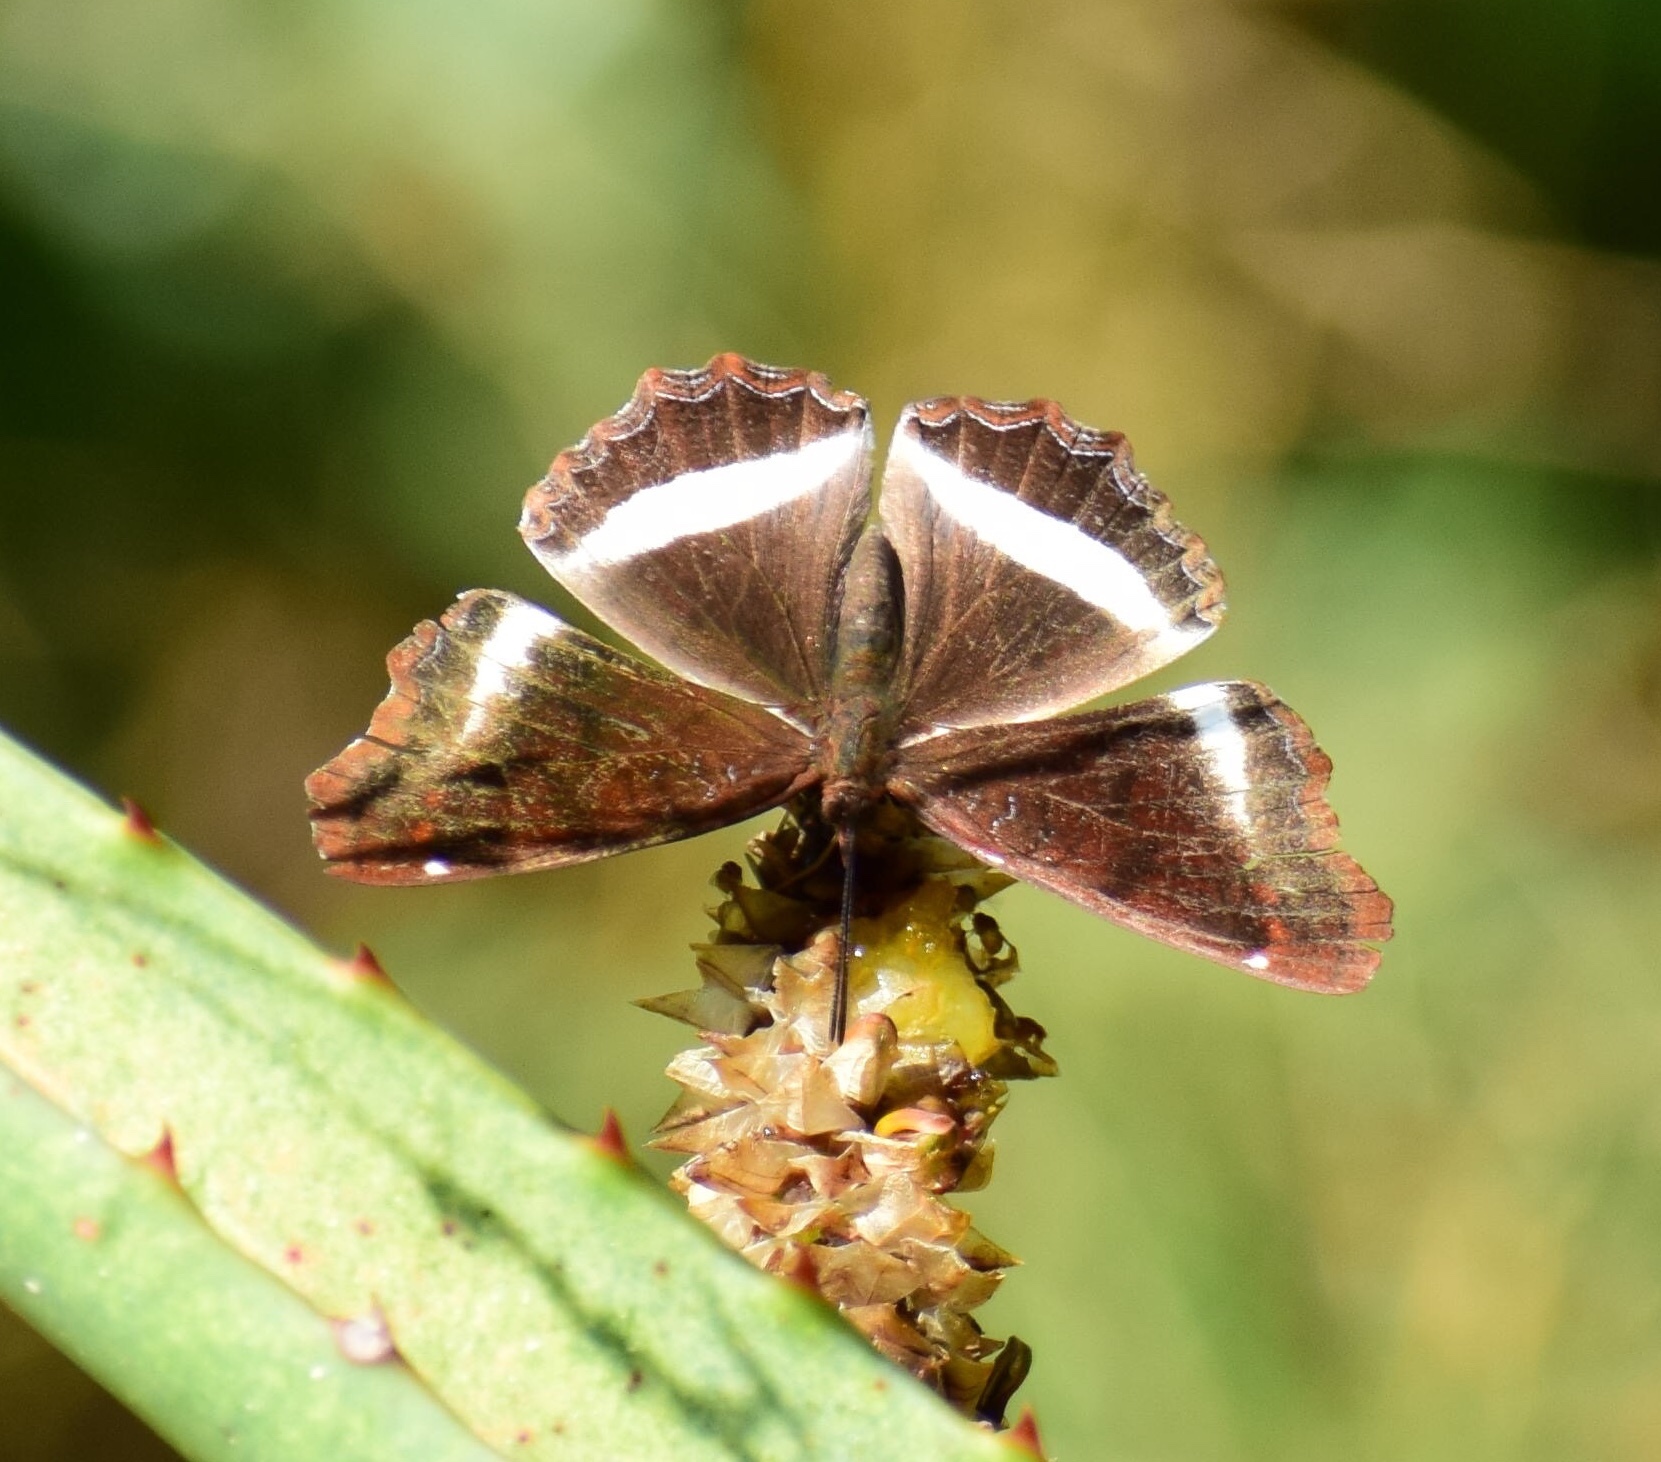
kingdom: Animalia
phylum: Arthropoda
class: Insecta
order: Lepidoptera
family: Nymphalidae
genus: Eurytela
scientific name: Eurytela hiarbas
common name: Pied piper
